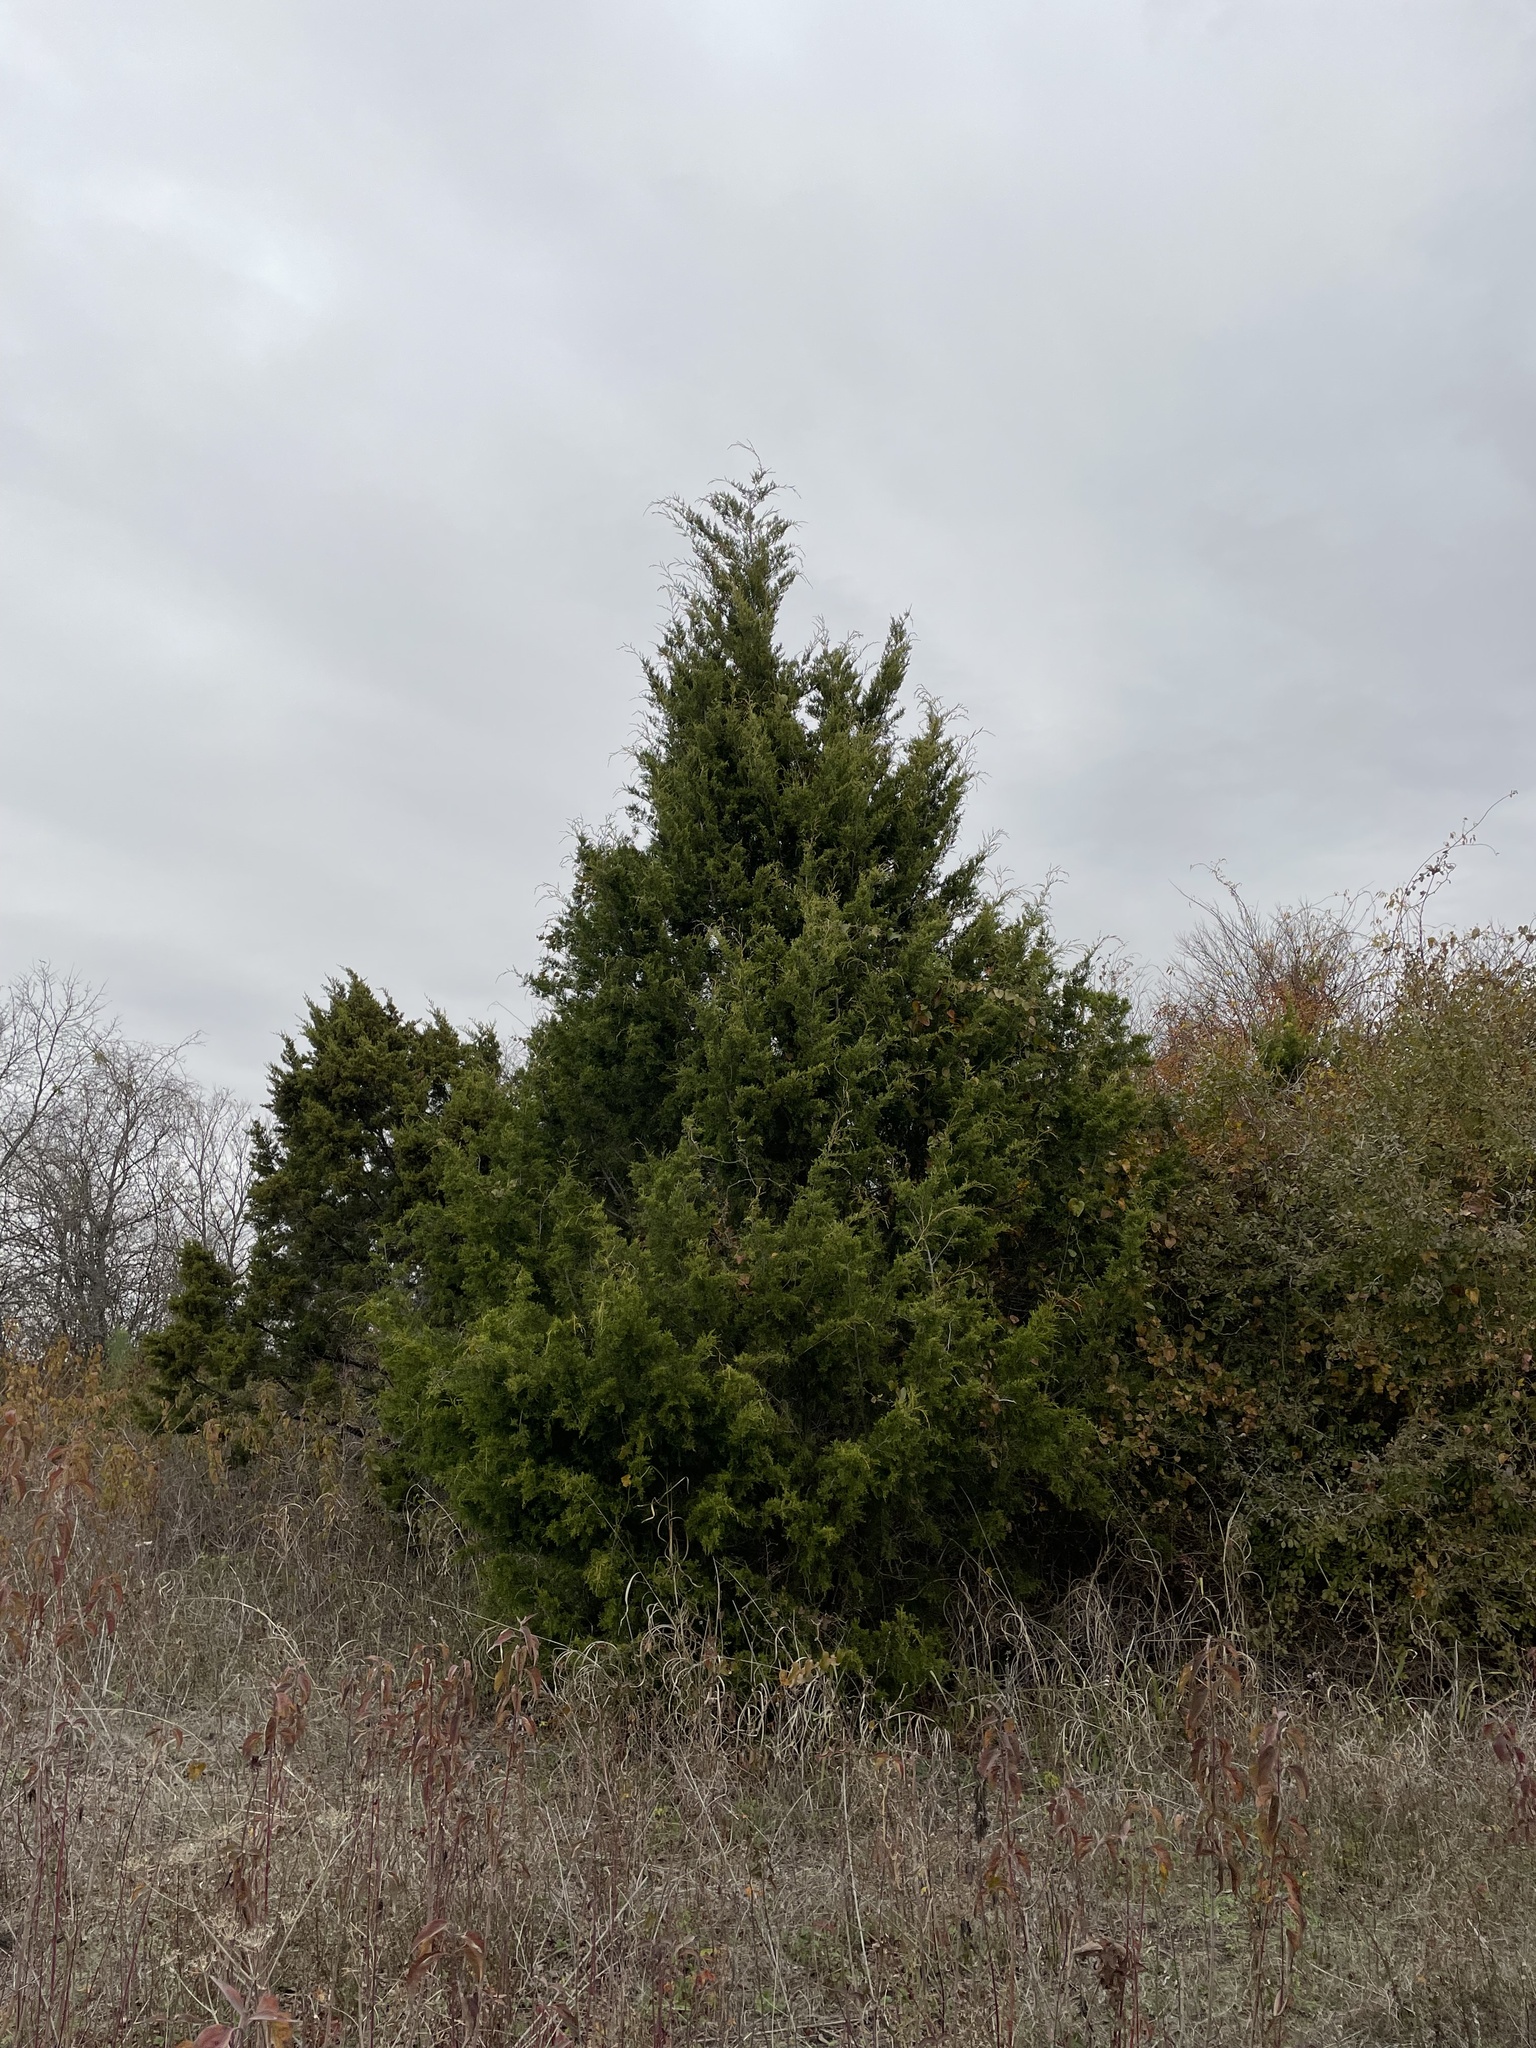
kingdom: Plantae
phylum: Tracheophyta
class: Pinopsida
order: Pinales
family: Cupressaceae
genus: Juniperus
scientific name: Juniperus virginiana
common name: Red juniper
